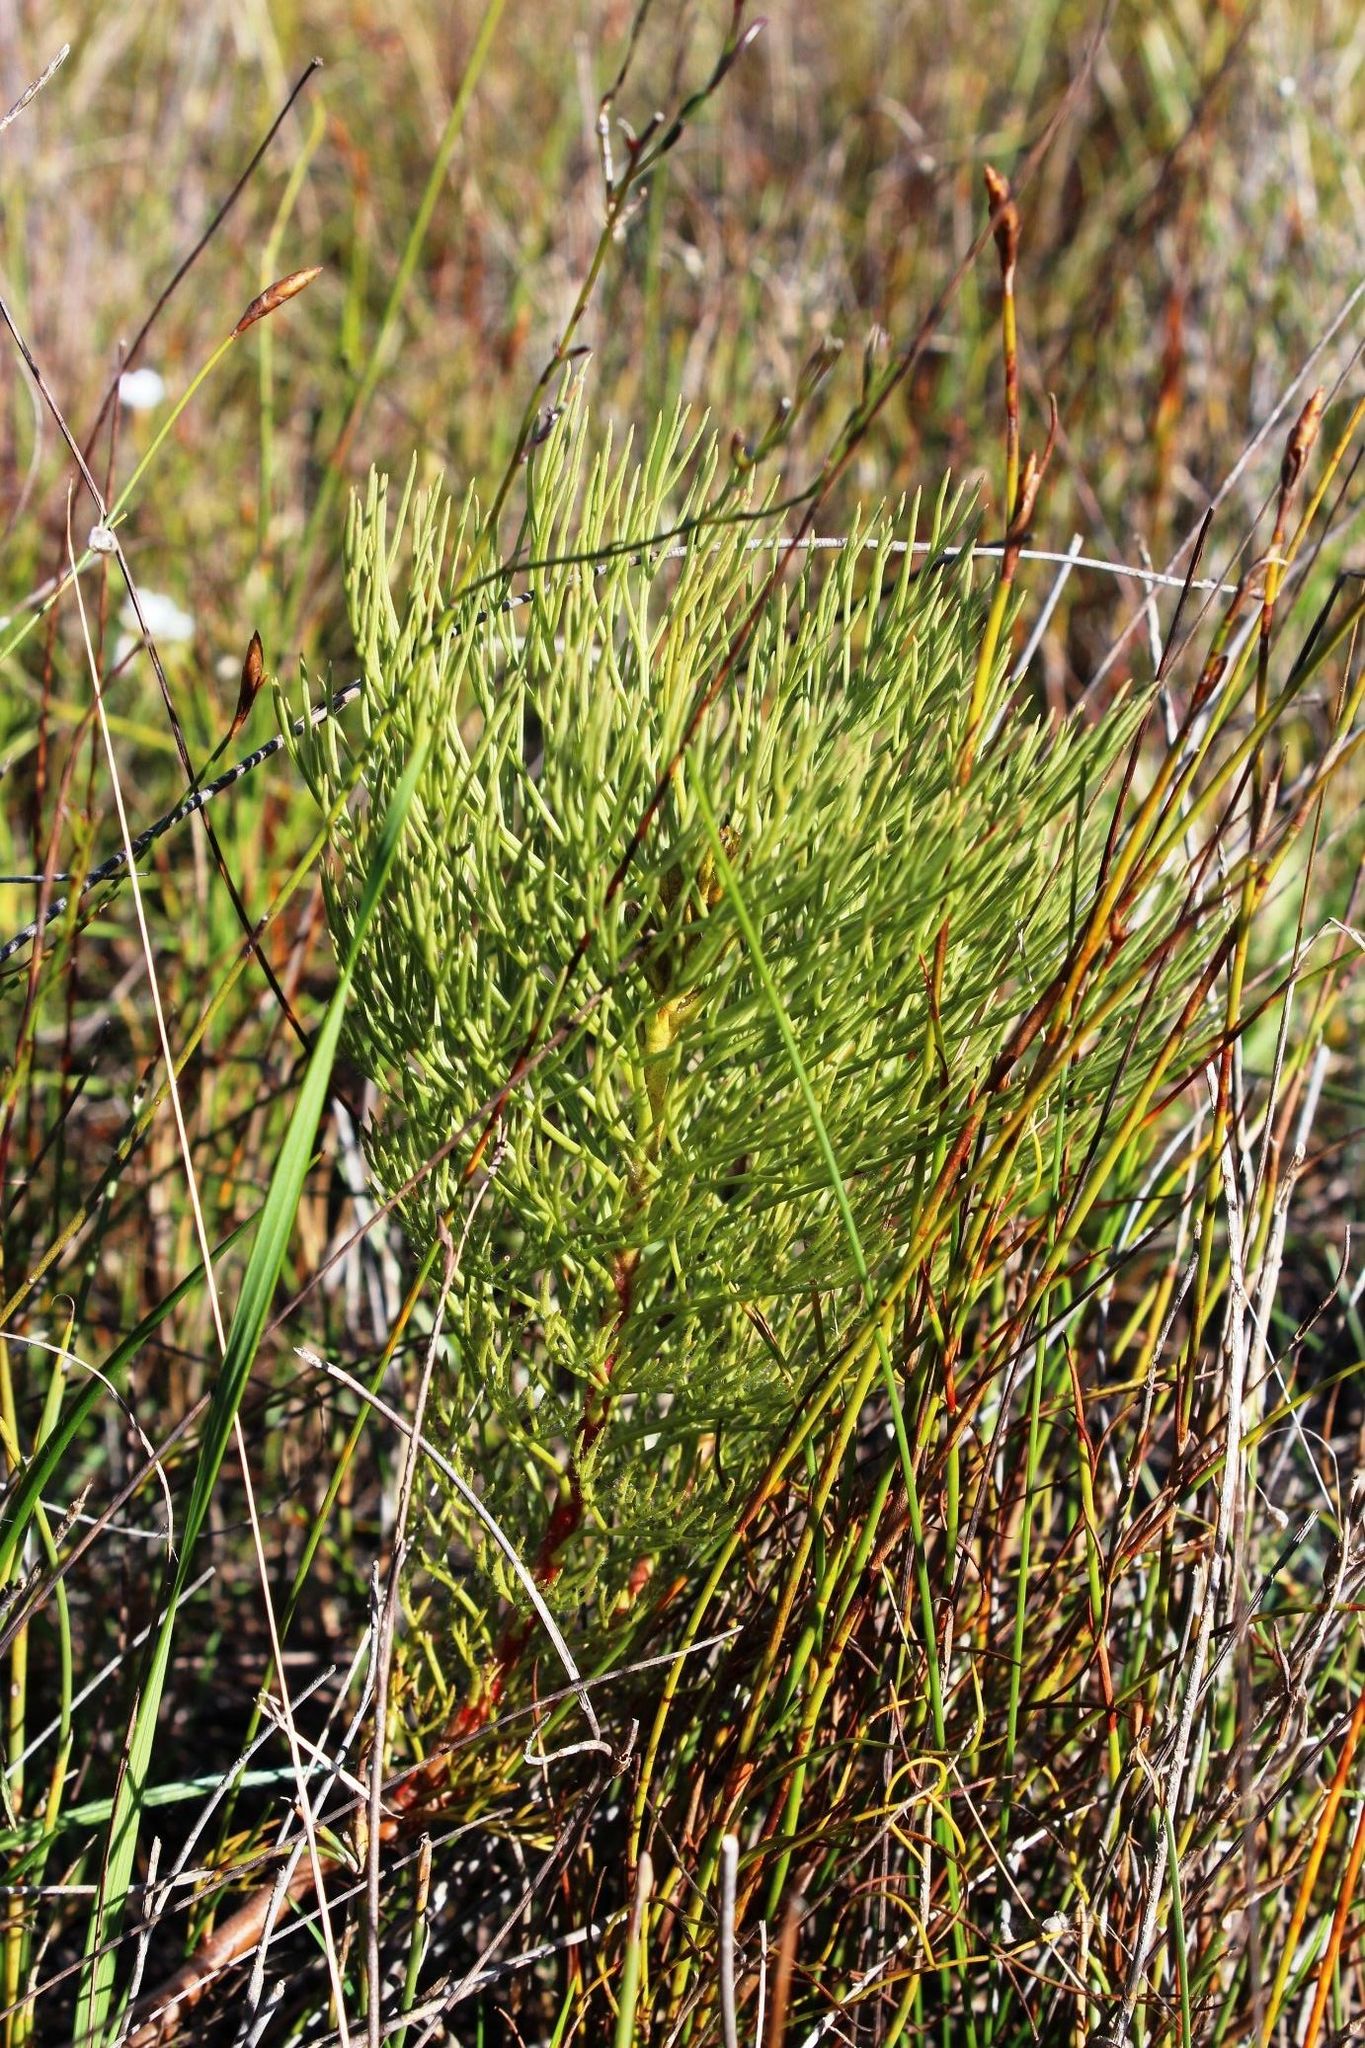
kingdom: Plantae
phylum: Tracheophyta
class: Magnoliopsida
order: Proteales
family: Proteaceae
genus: Serruria
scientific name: Serruria glomerata
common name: Cluster spiderhead
